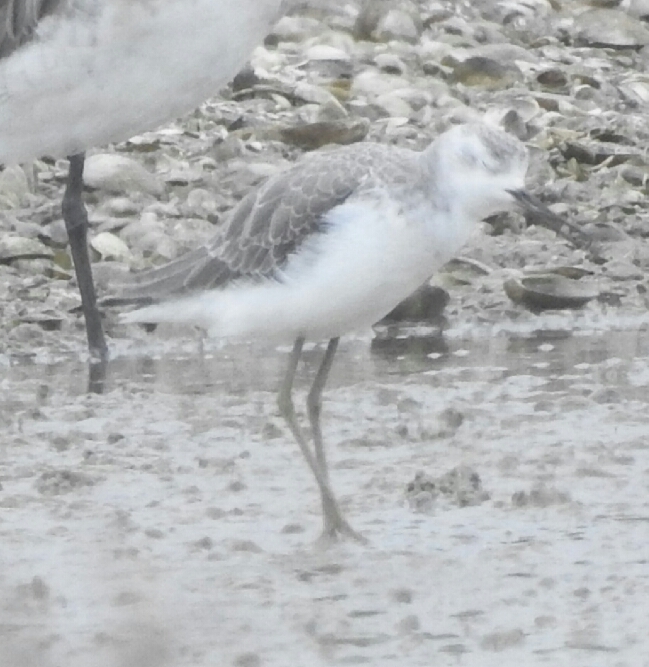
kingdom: Animalia
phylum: Chordata
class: Aves
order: Charadriiformes
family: Scolopacidae
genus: Tringa
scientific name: Tringa stagnatilis
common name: Marsh sandpiper
